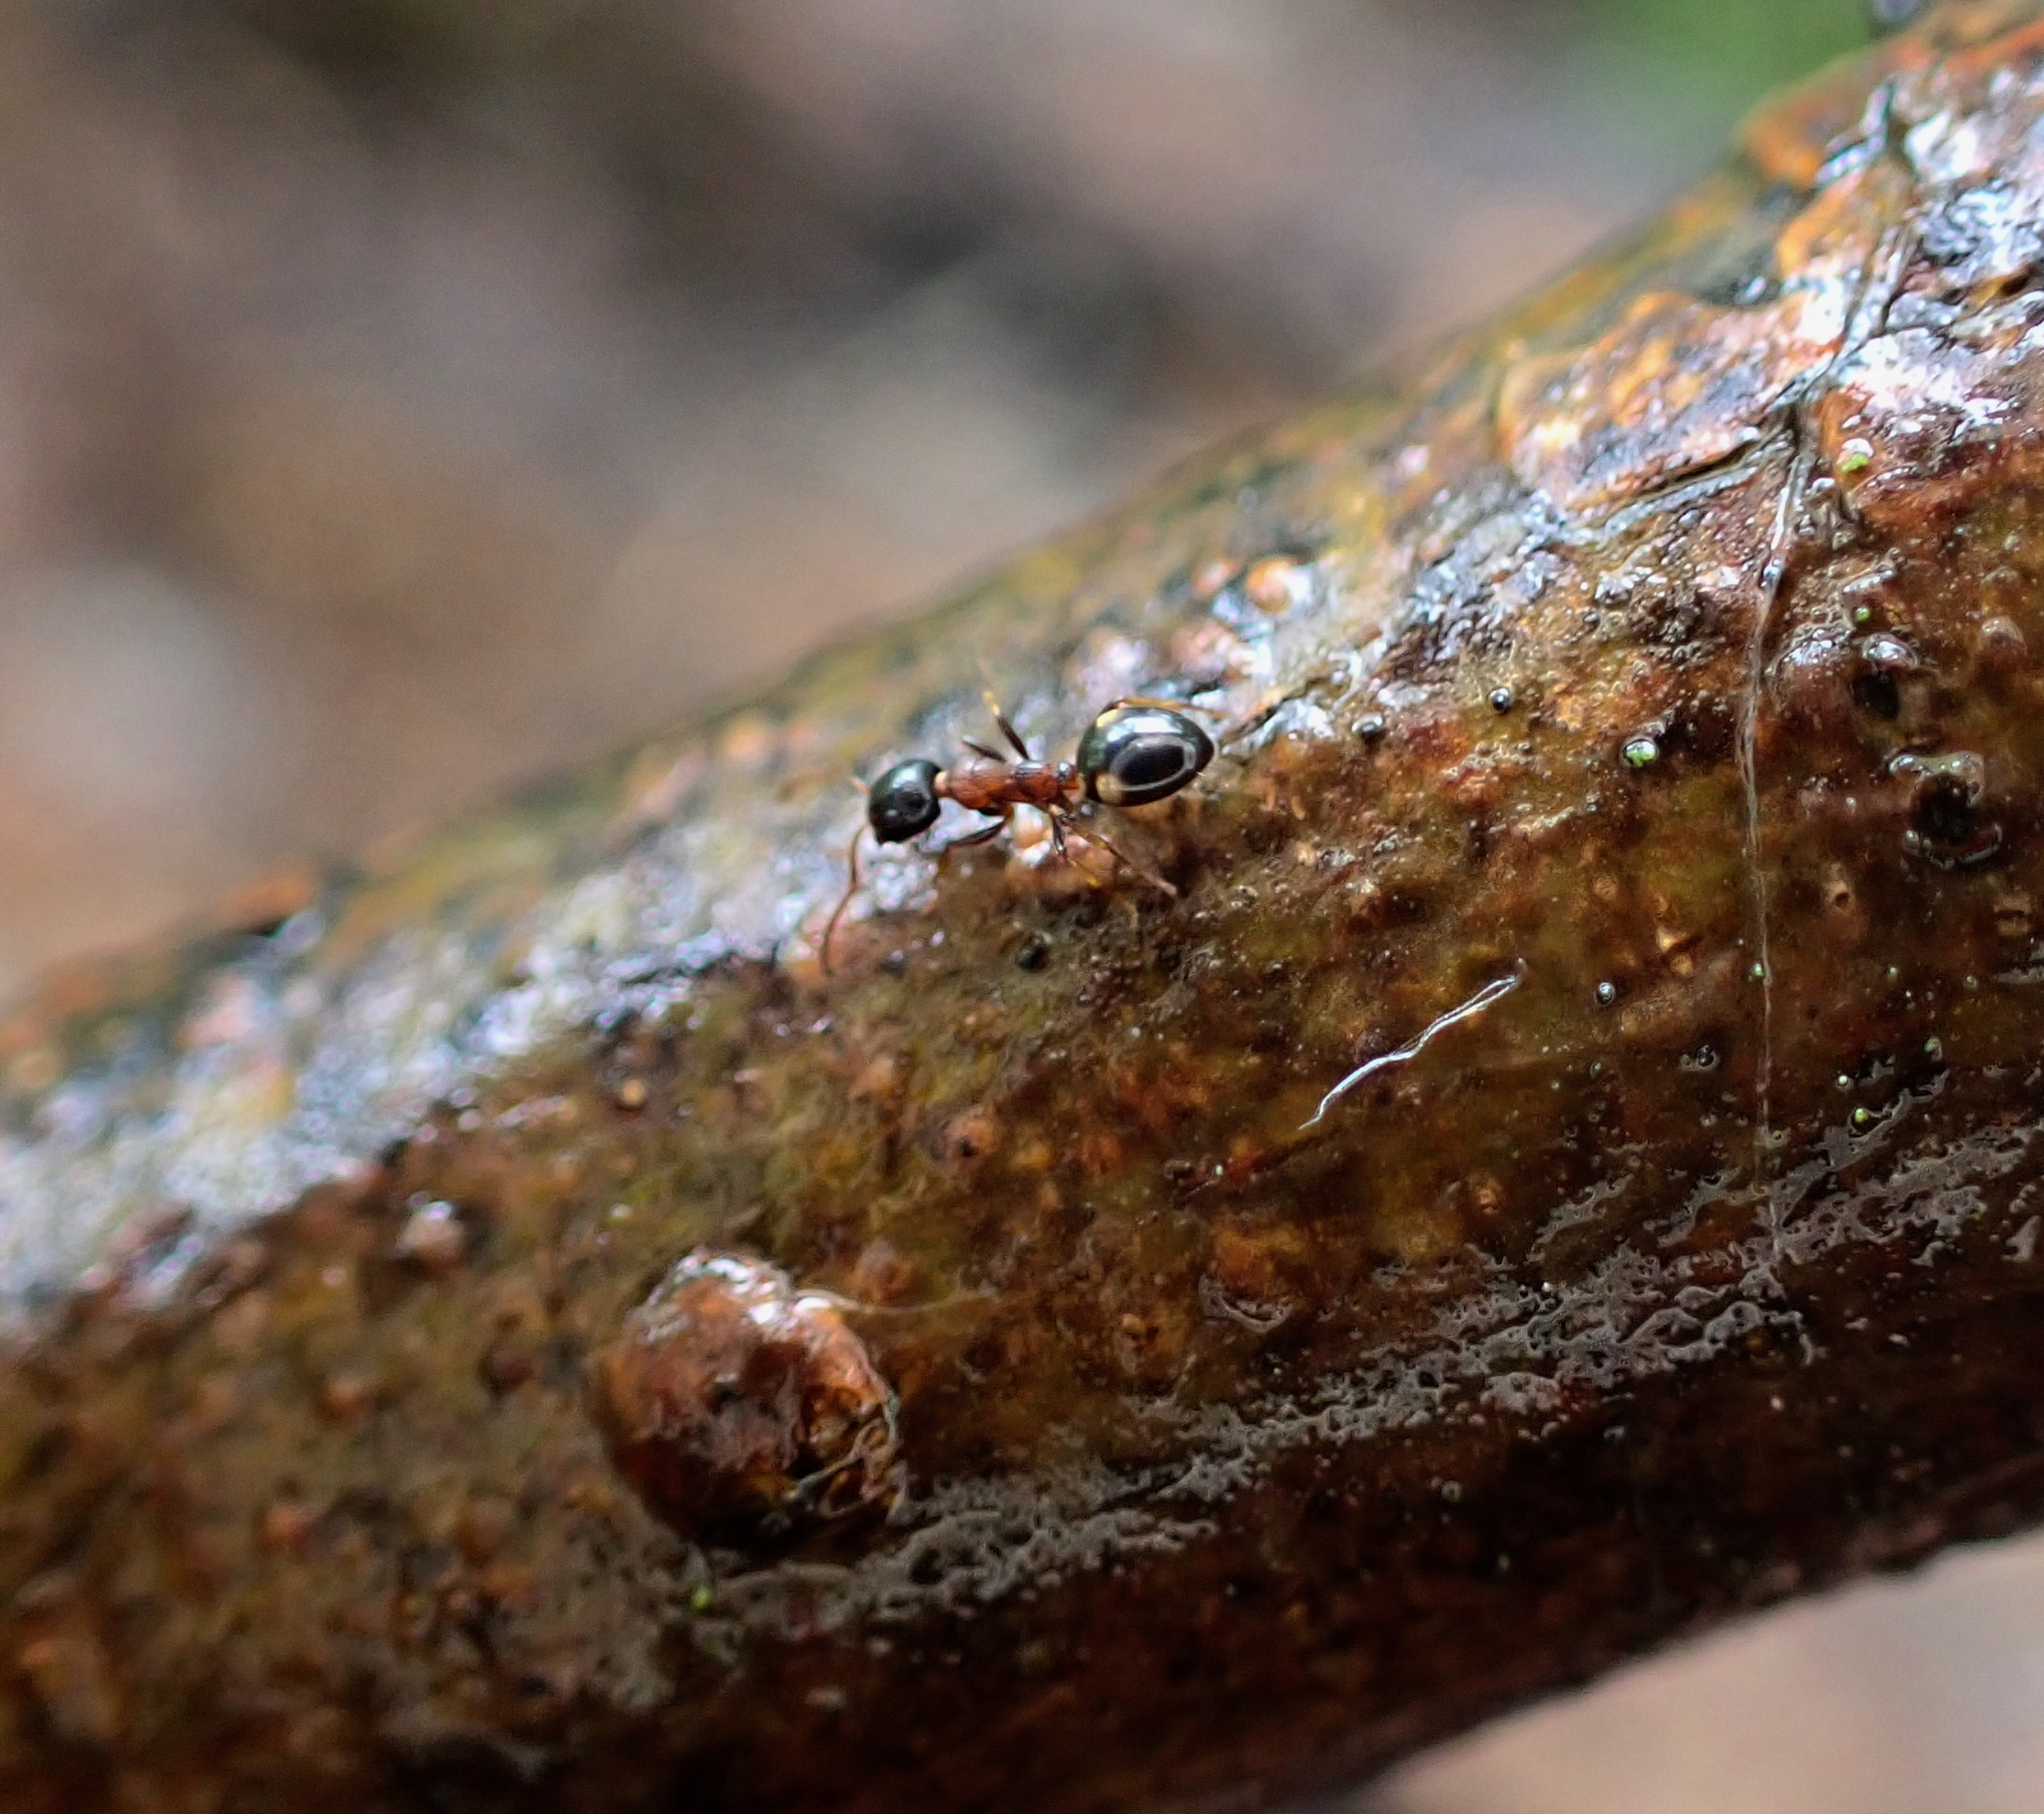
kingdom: Animalia
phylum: Arthropoda
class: Insecta
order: Hymenoptera
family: Formicidae
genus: Dolichoderus
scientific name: Dolichoderus quadripunctatus
